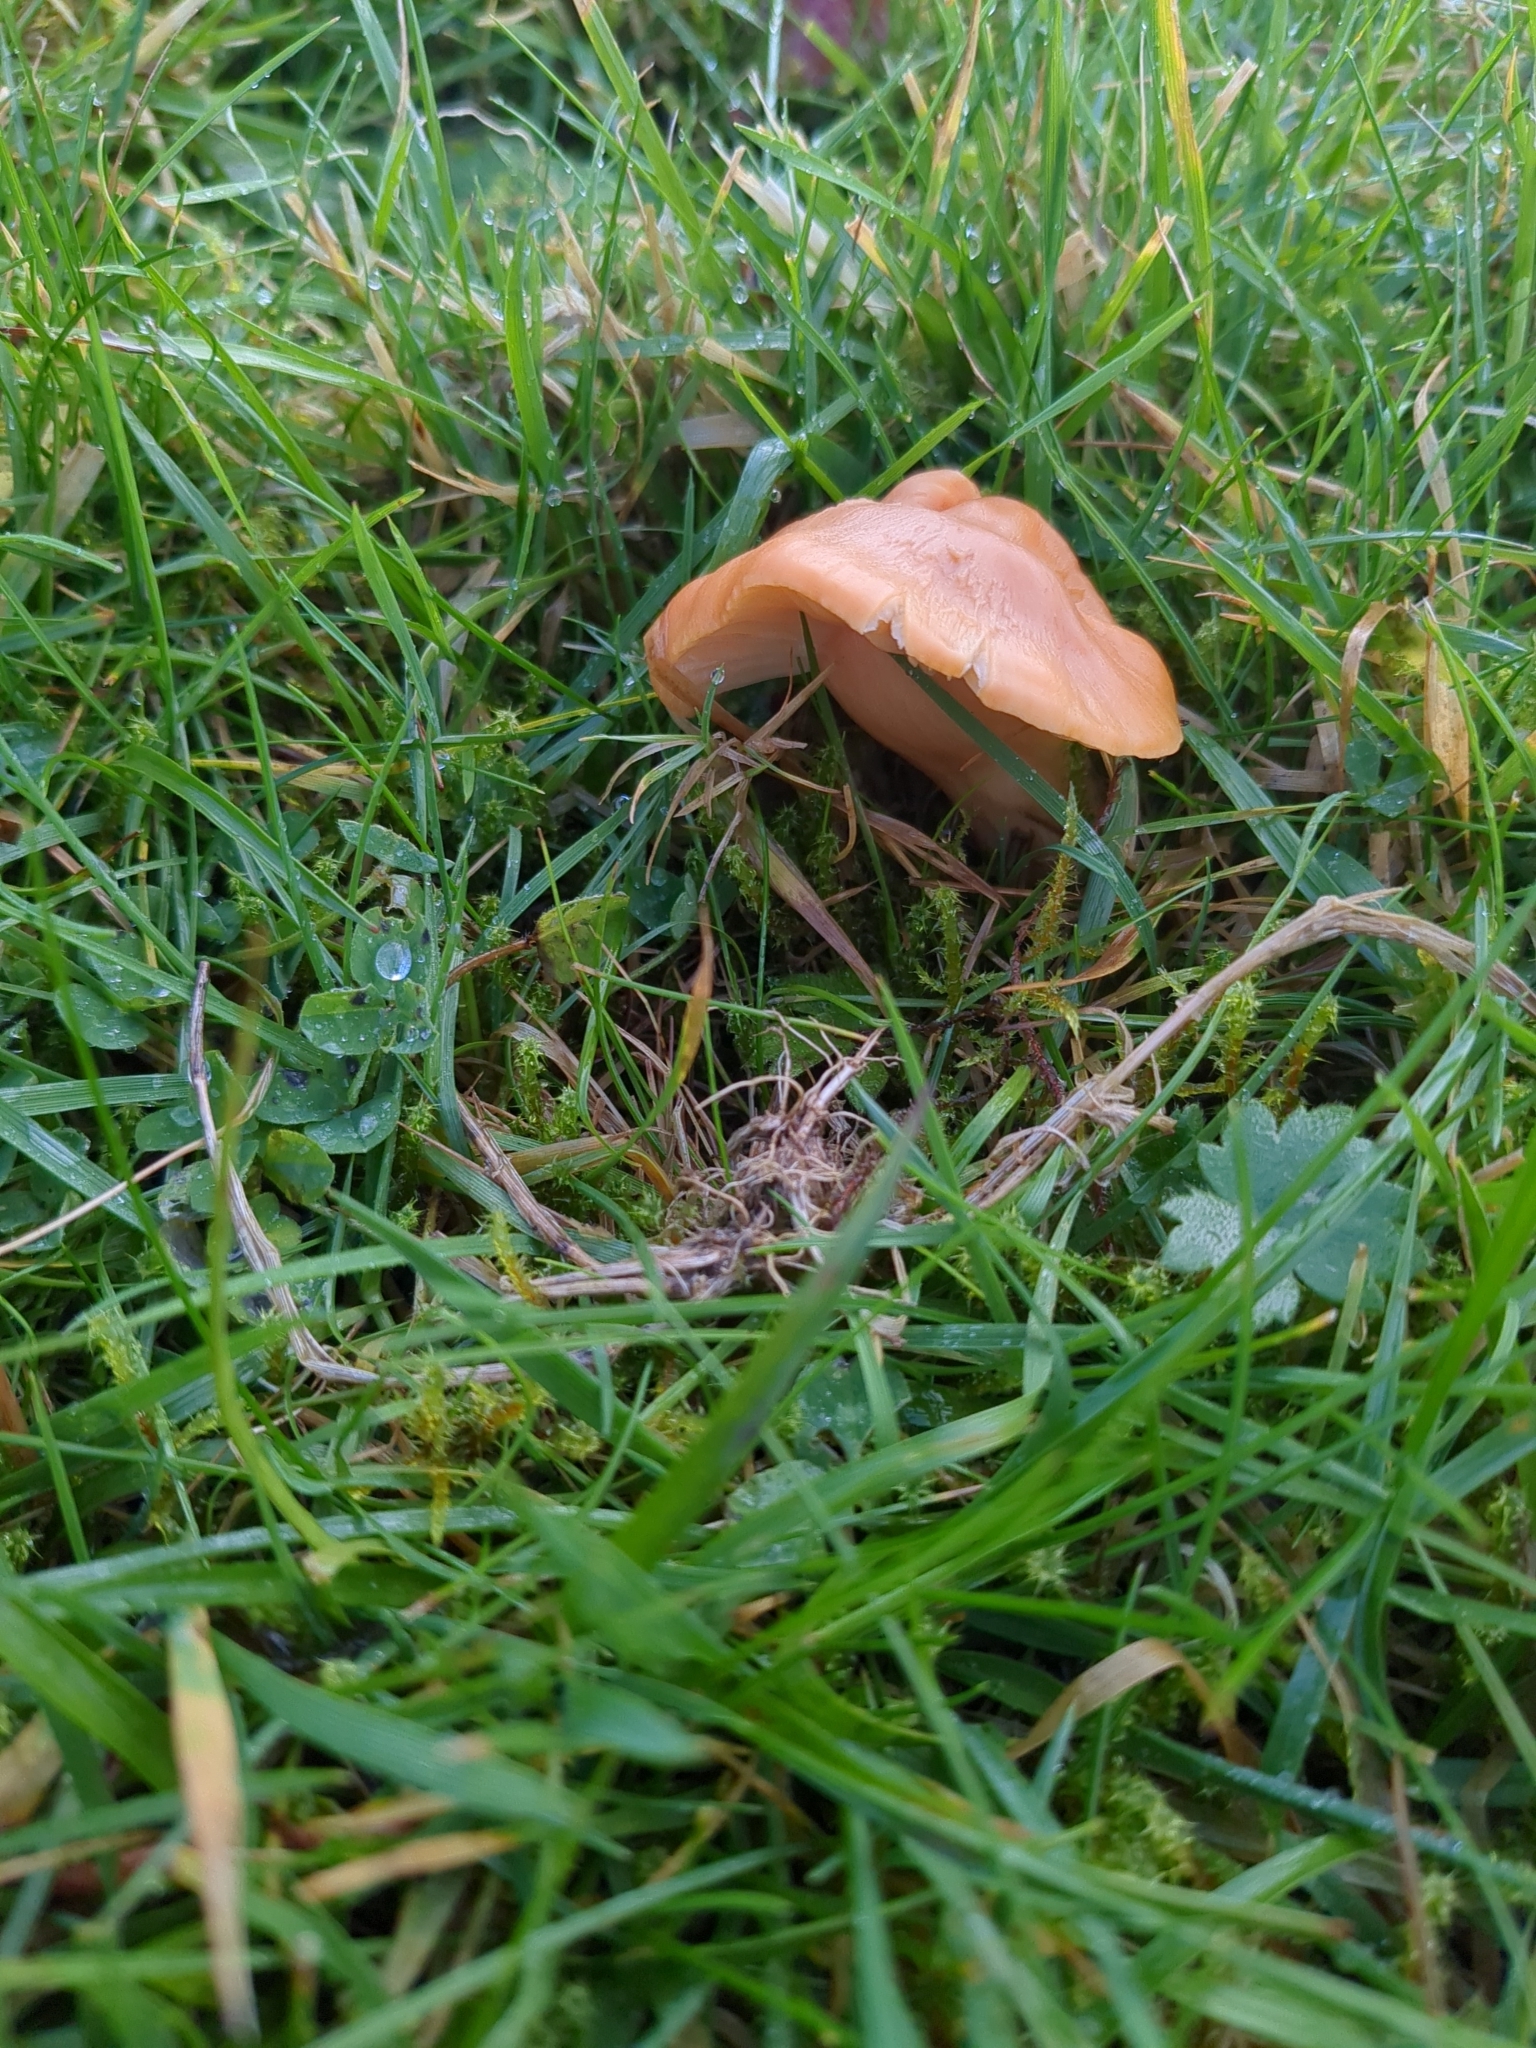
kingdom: Fungi
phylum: Basidiomycota
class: Agaricomycetes
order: Agaricales
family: Hygrophoraceae
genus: Cuphophyllus
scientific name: Cuphophyllus pratensis
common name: Meadow waxcap
